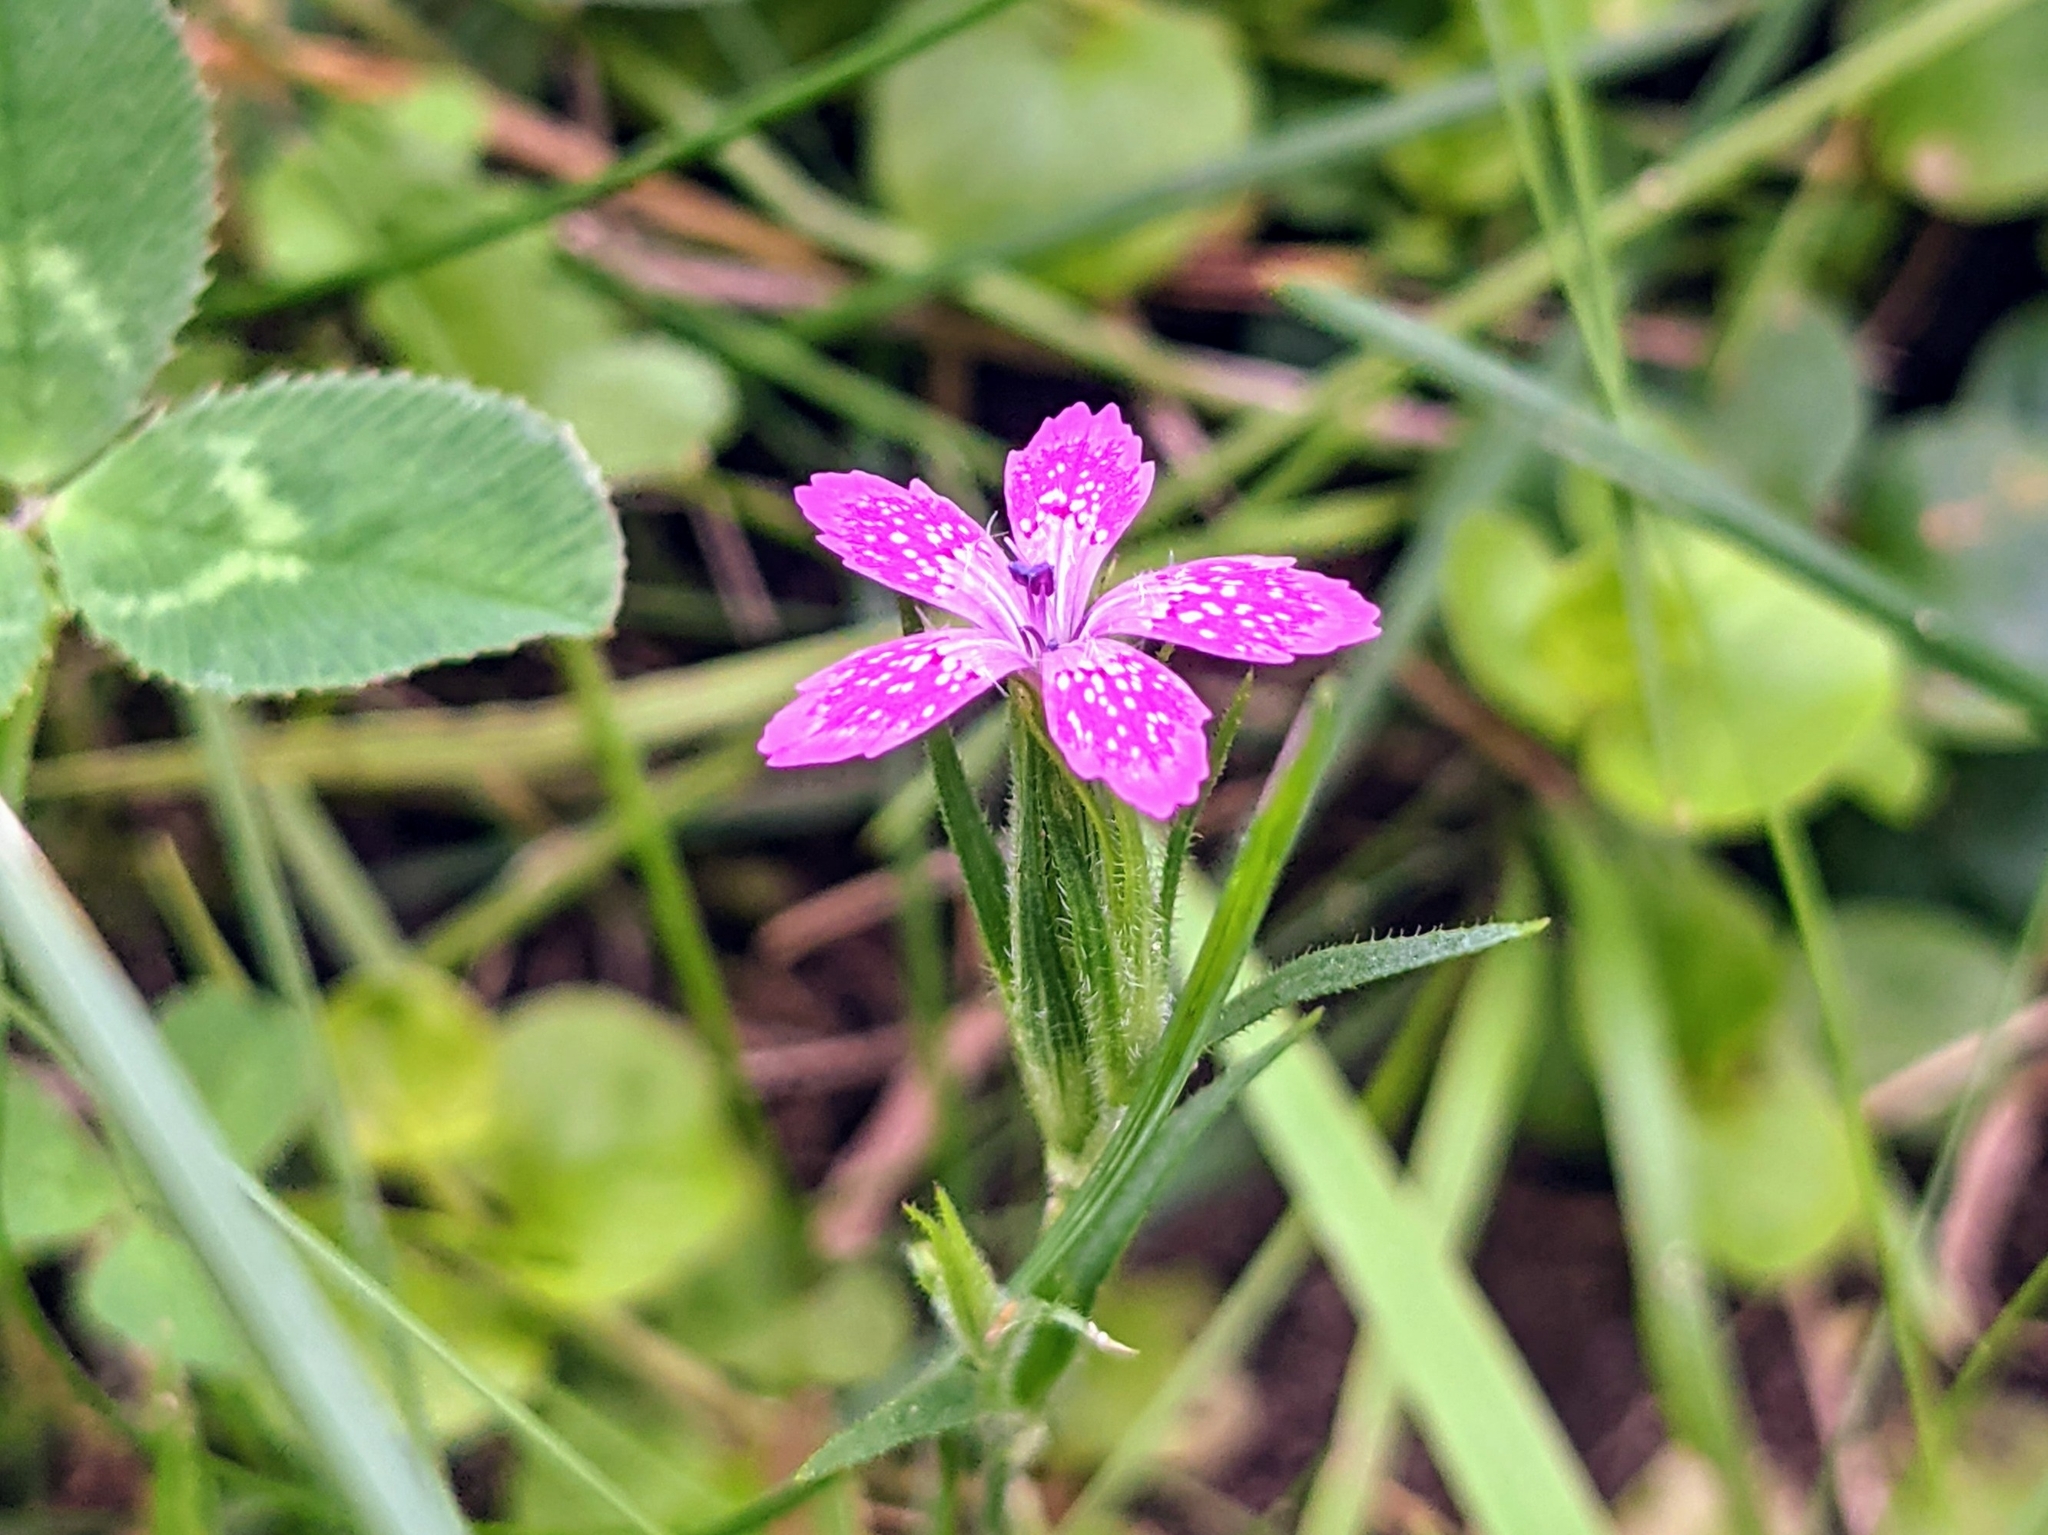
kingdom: Plantae
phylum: Tracheophyta
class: Magnoliopsida
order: Caryophyllales
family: Caryophyllaceae
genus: Dianthus
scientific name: Dianthus armeria
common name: Deptford pink
